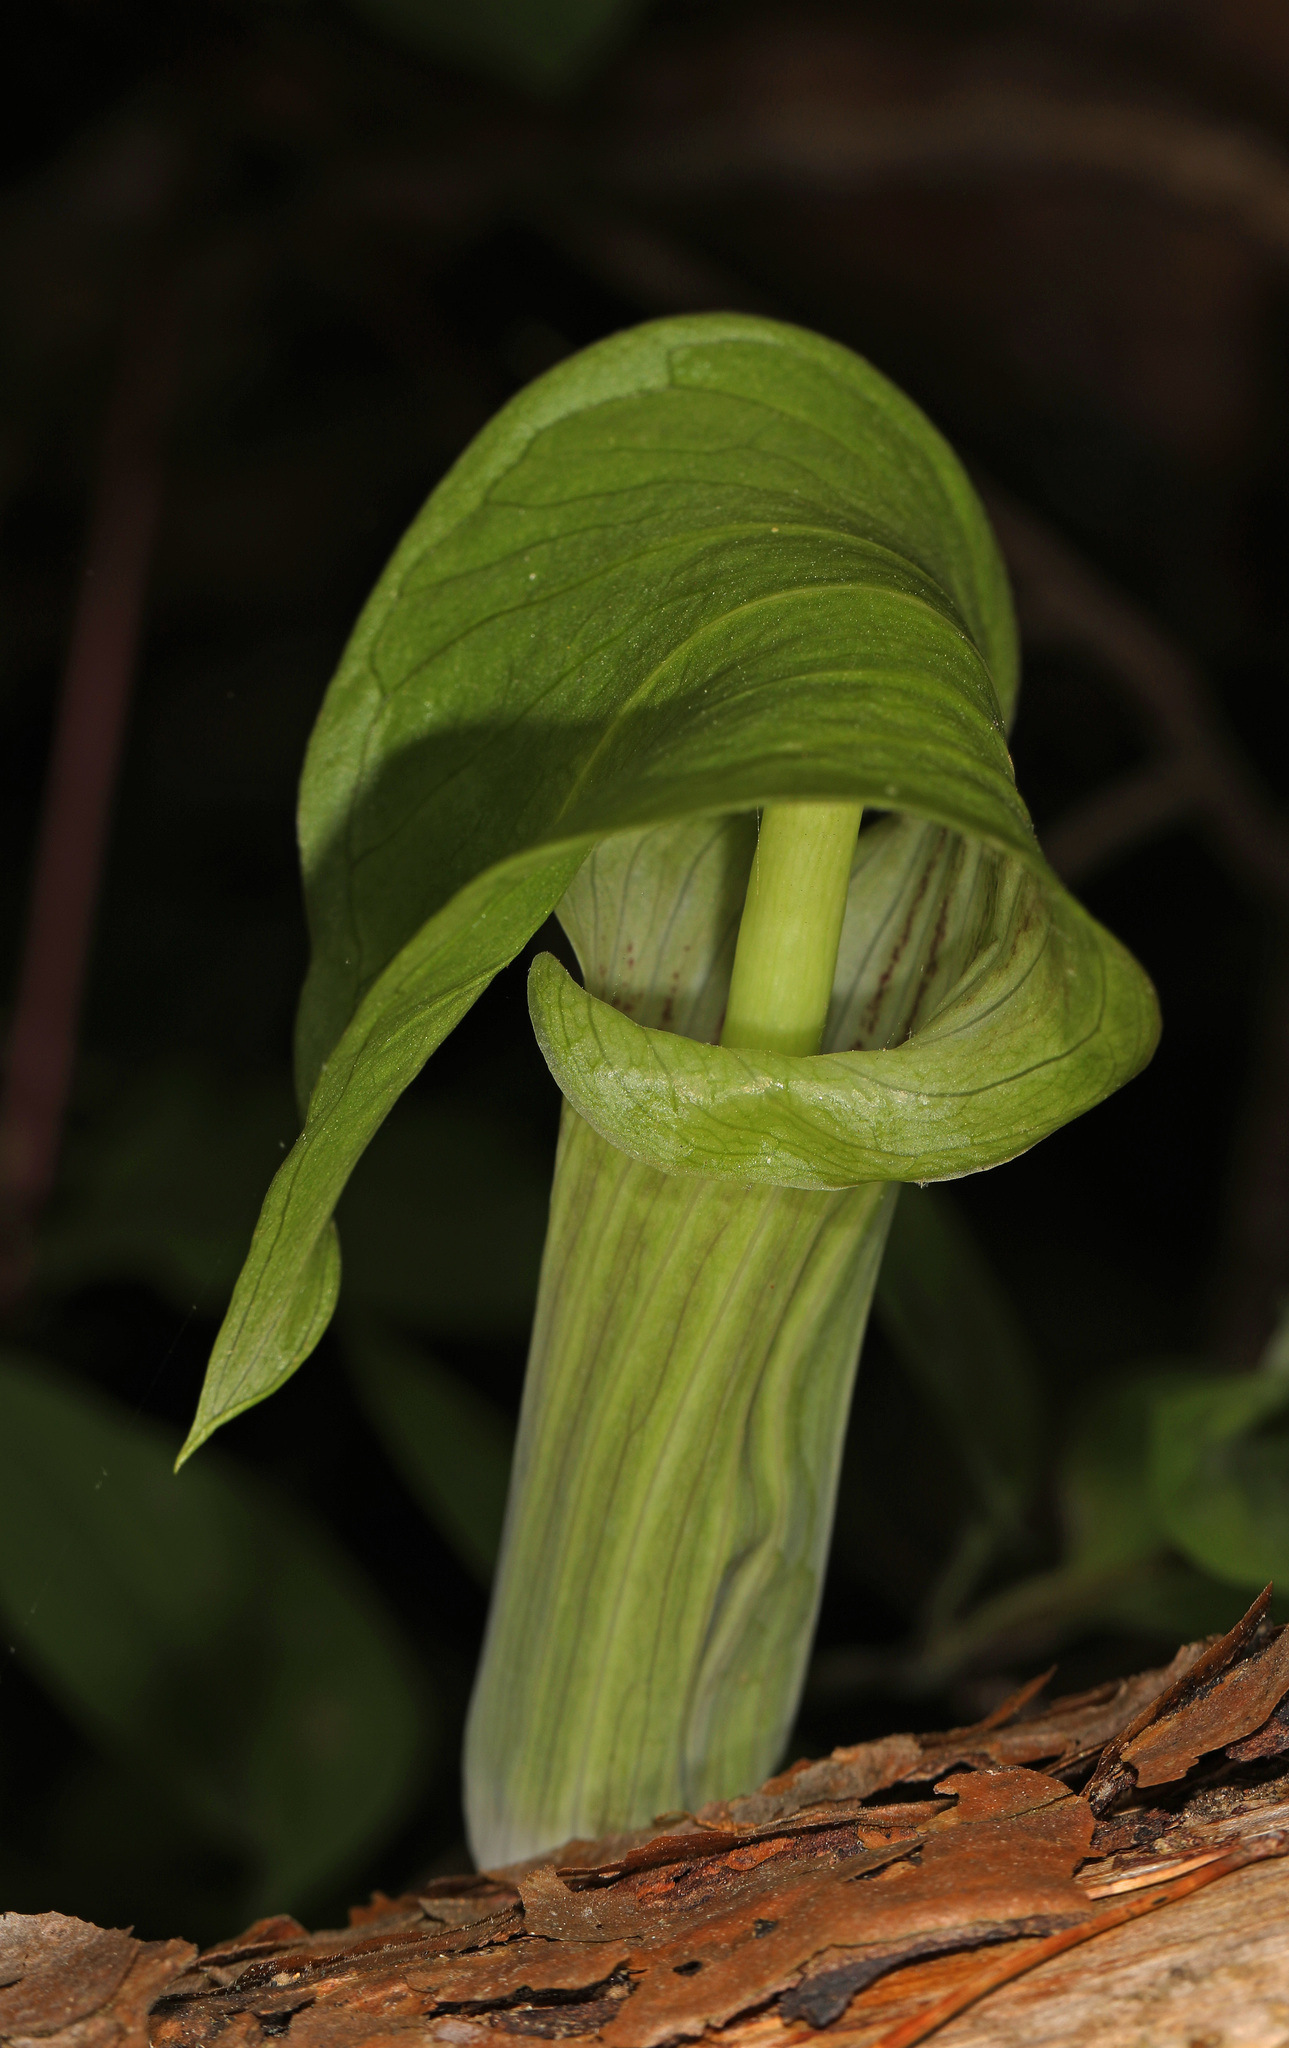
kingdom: Plantae
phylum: Tracheophyta
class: Liliopsida
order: Alismatales
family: Araceae
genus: Arisaema
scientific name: Arisaema triphyllum
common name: Jack-in-the-pulpit
